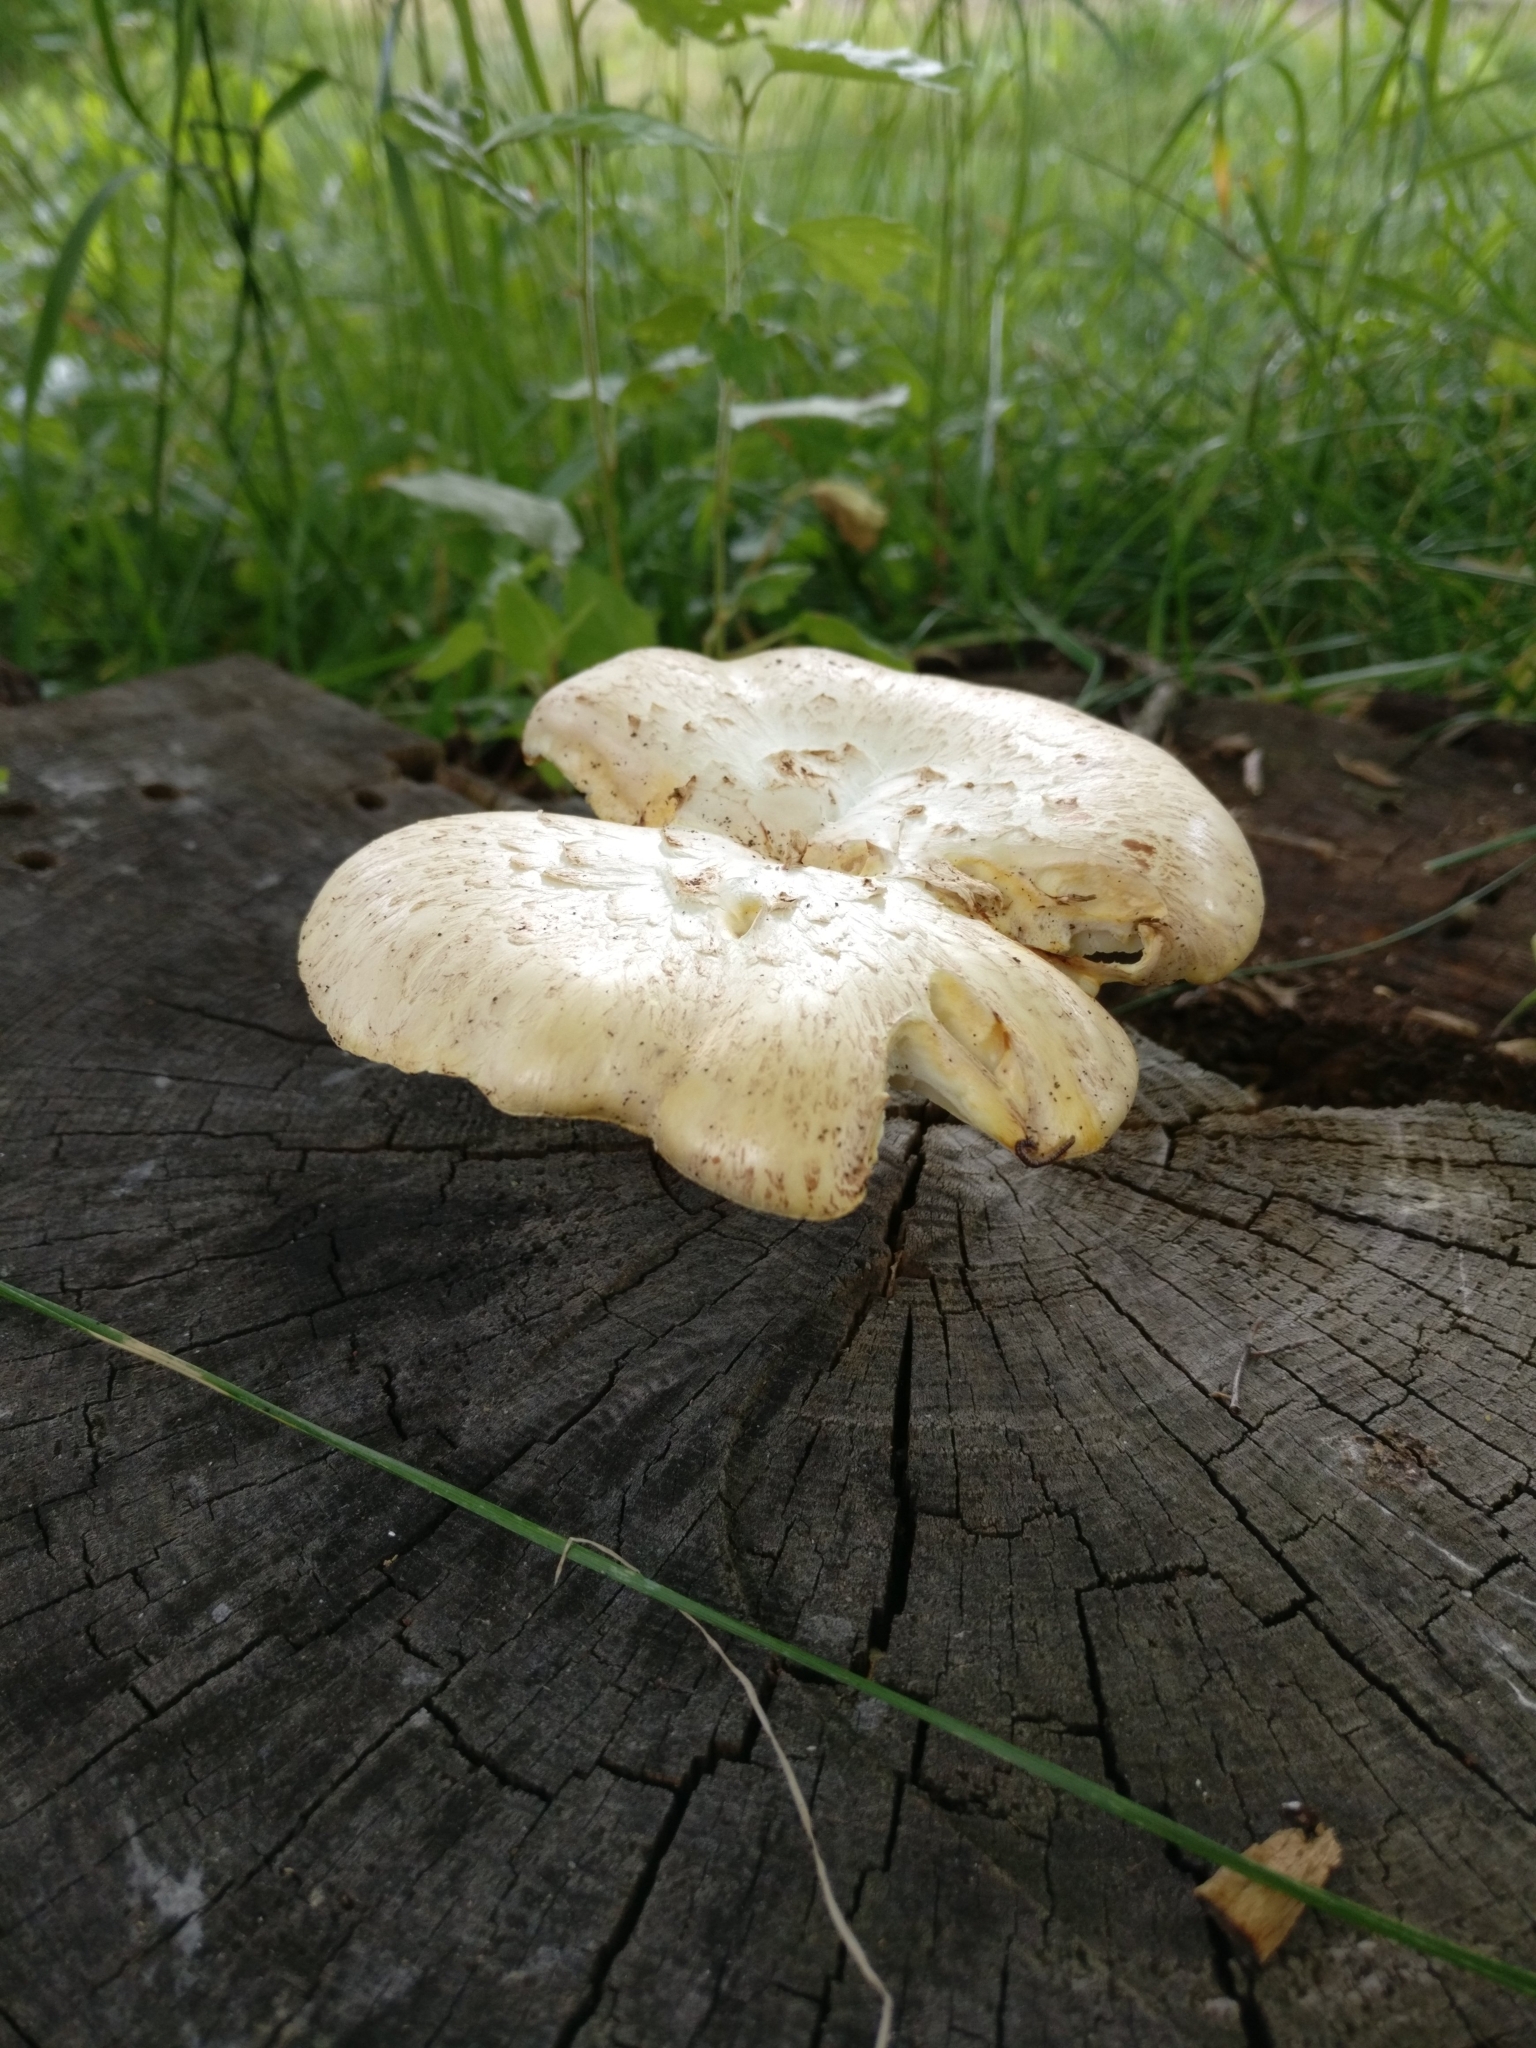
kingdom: Fungi
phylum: Basidiomycota
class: Agaricomycetes
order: Gloeophyllales
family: Gloeophyllaceae
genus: Neolentinus
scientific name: Neolentinus lepideus
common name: Scaly sawgill
